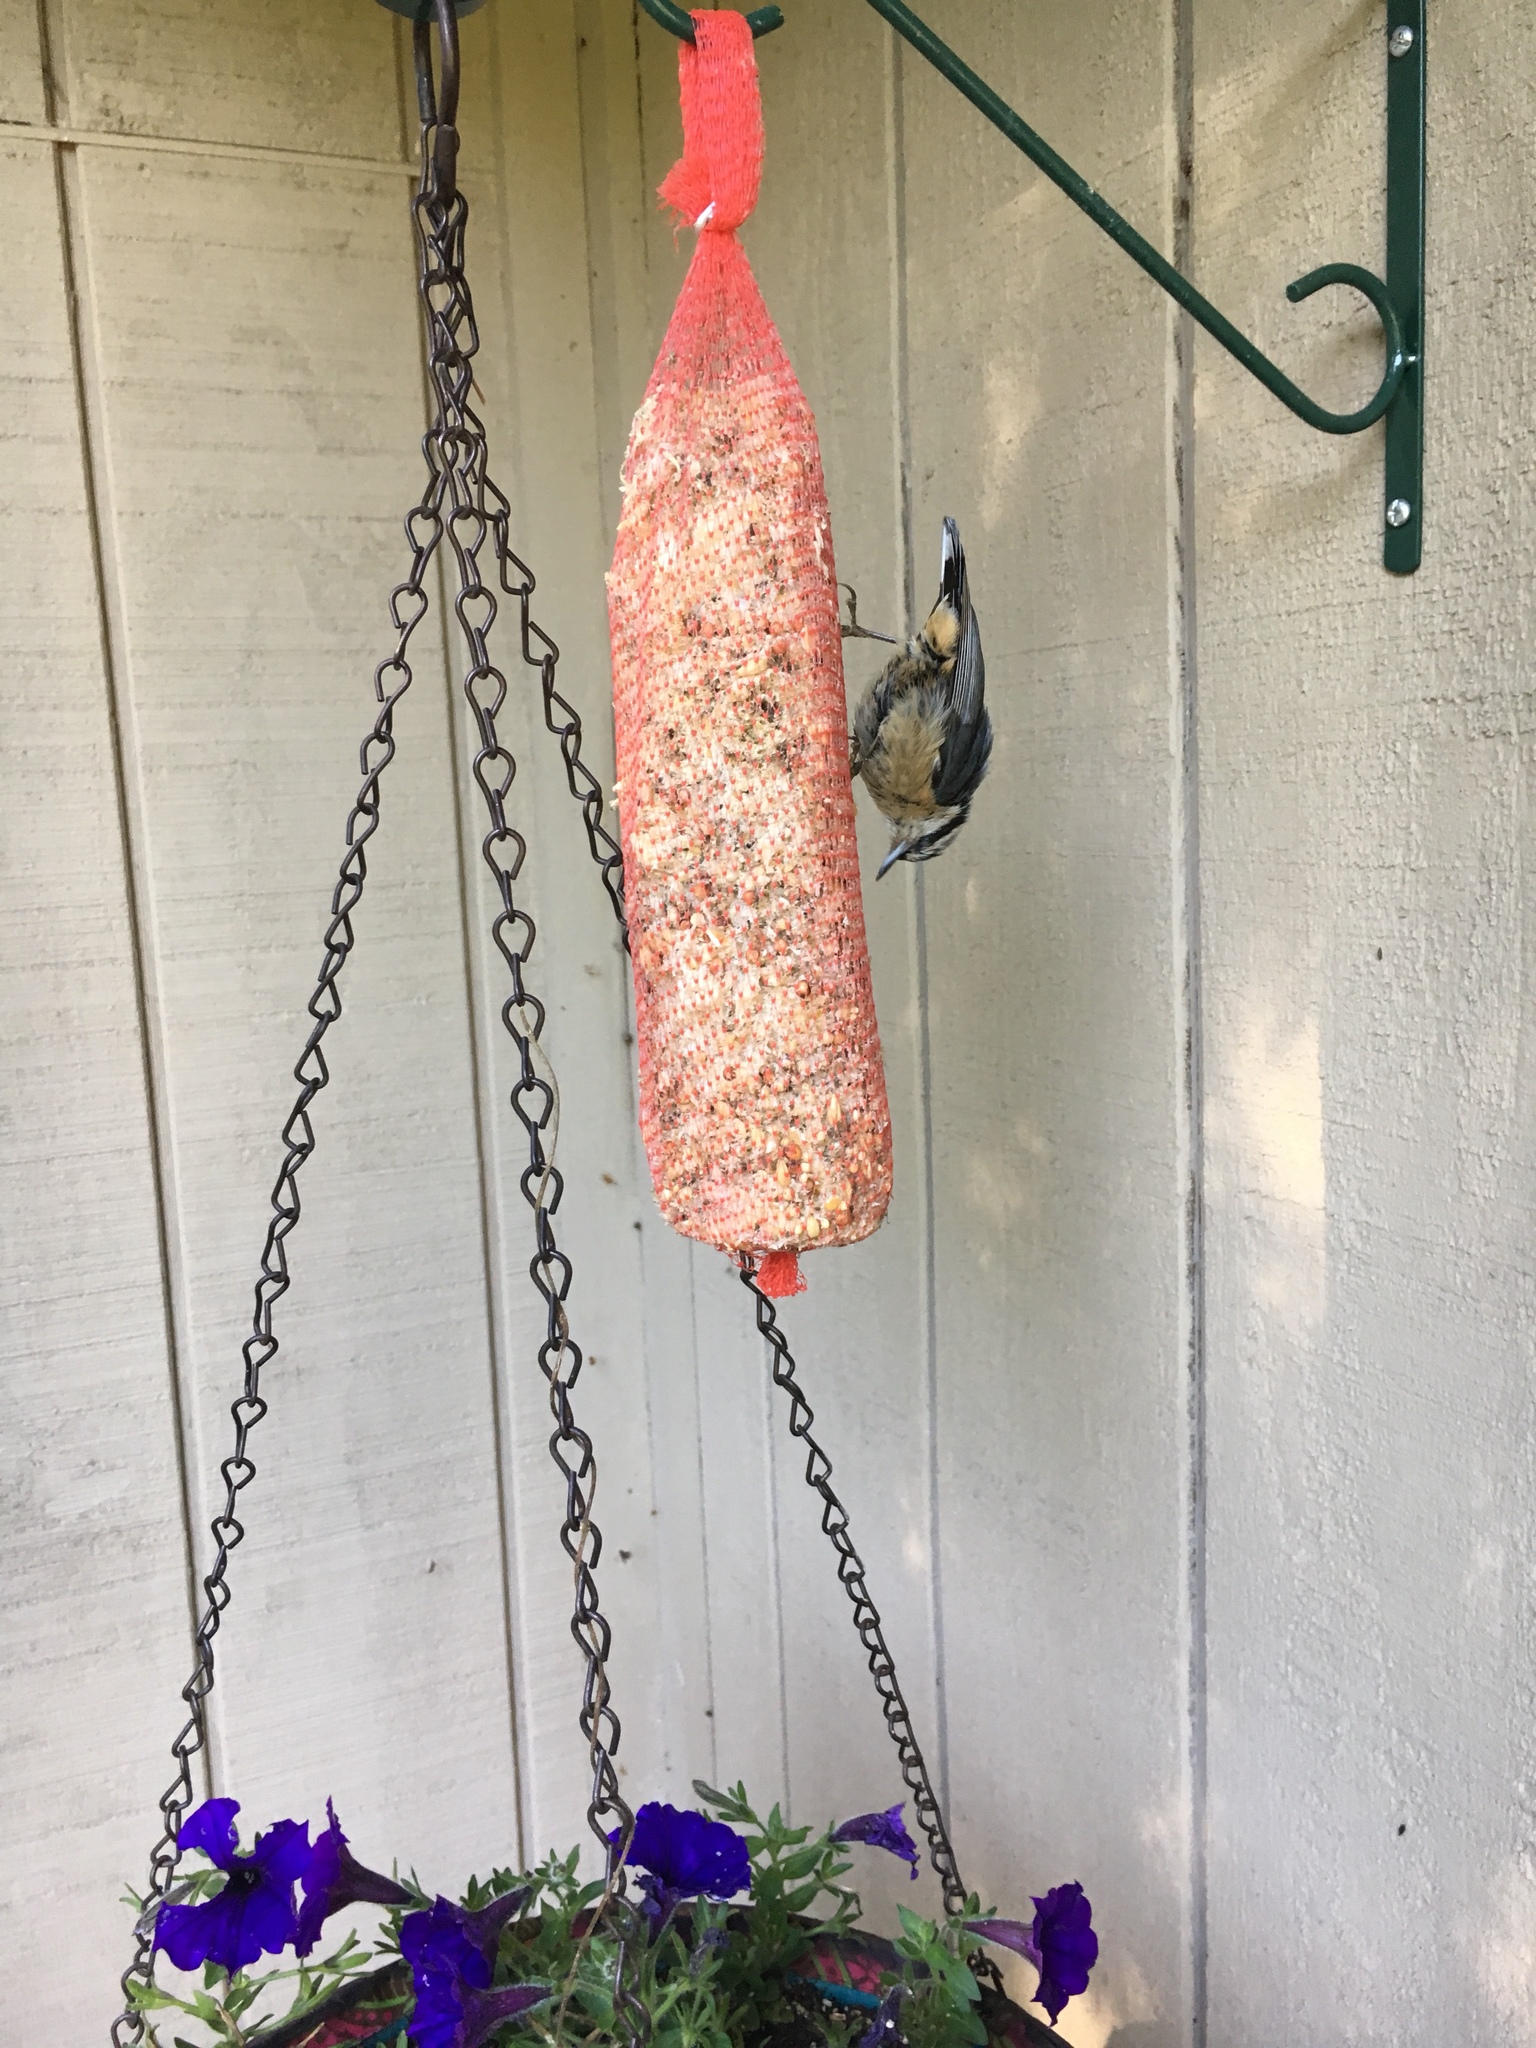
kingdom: Animalia
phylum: Chordata
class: Aves
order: Passeriformes
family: Sittidae
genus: Sitta
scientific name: Sitta canadensis
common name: Red-breasted nuthatch
